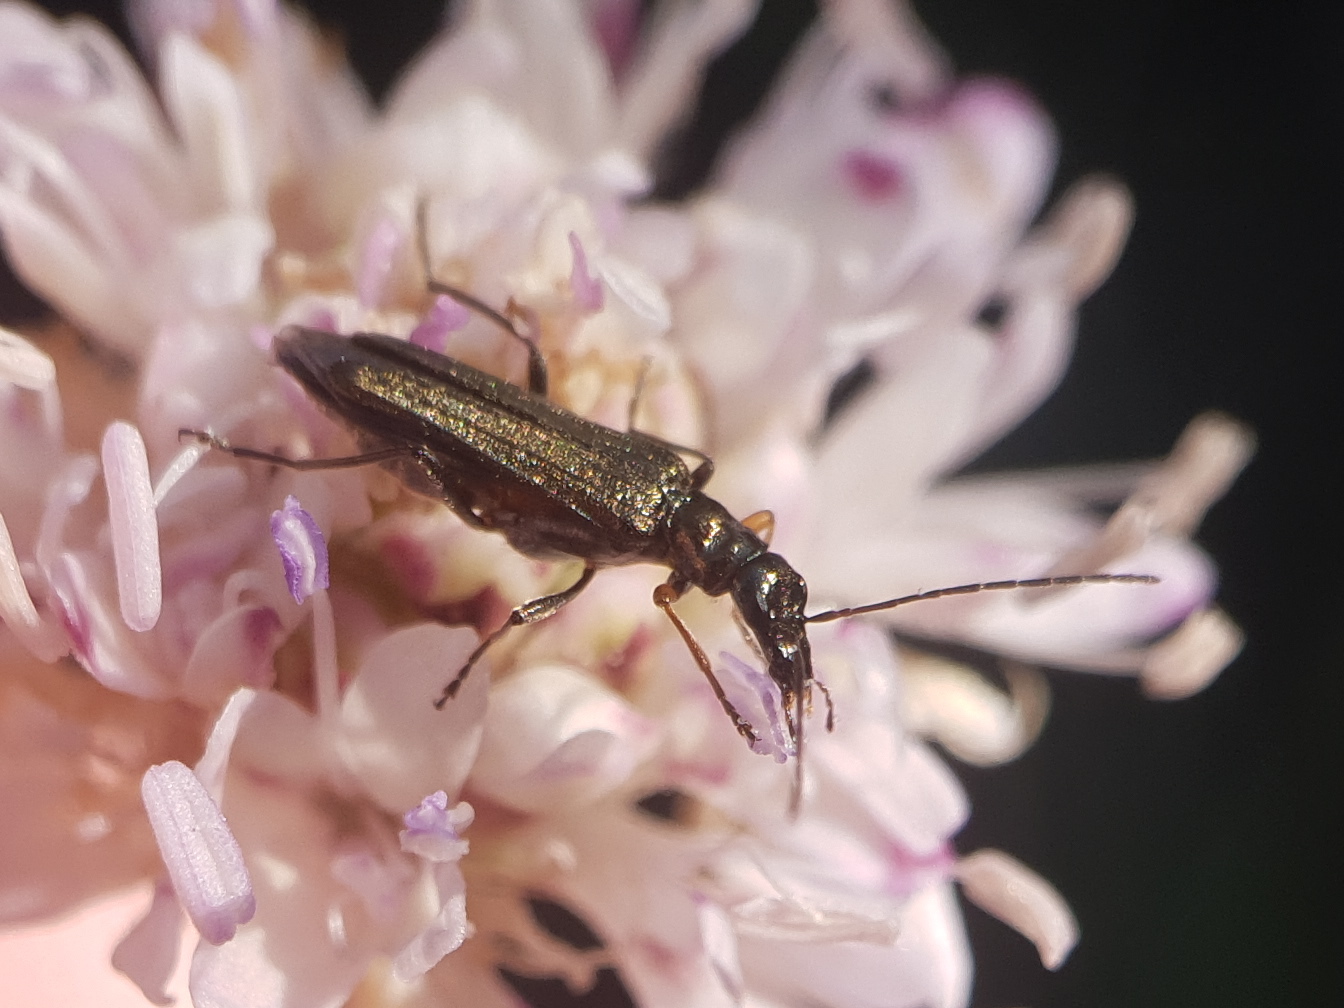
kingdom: Animalia
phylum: Arthropoda
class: Insecta
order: Coleoptera
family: Oedemeridae
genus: Oedemera
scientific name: Oedemera flavipes
